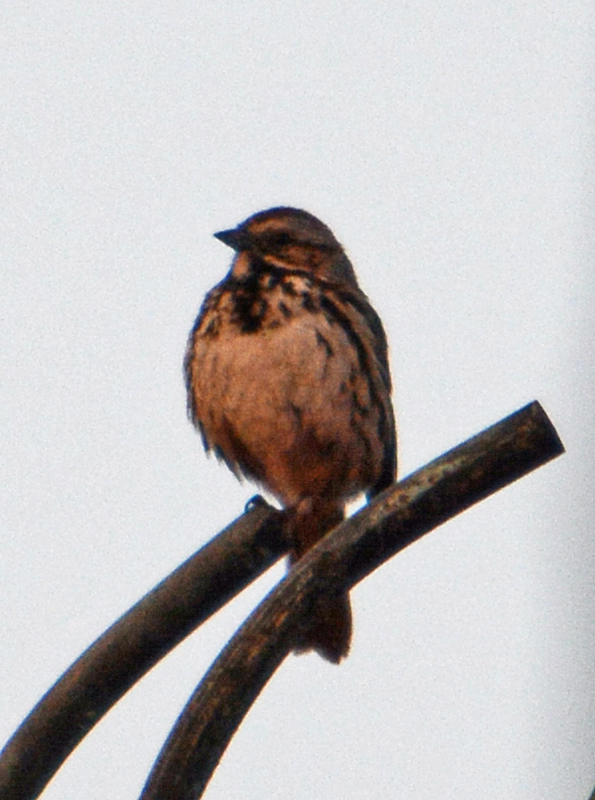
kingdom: Animalia
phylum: Chordata
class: Aves
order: Passeriformes
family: Passerellidae
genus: Melospiza
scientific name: Melospiza melodia
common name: Song sparrow
